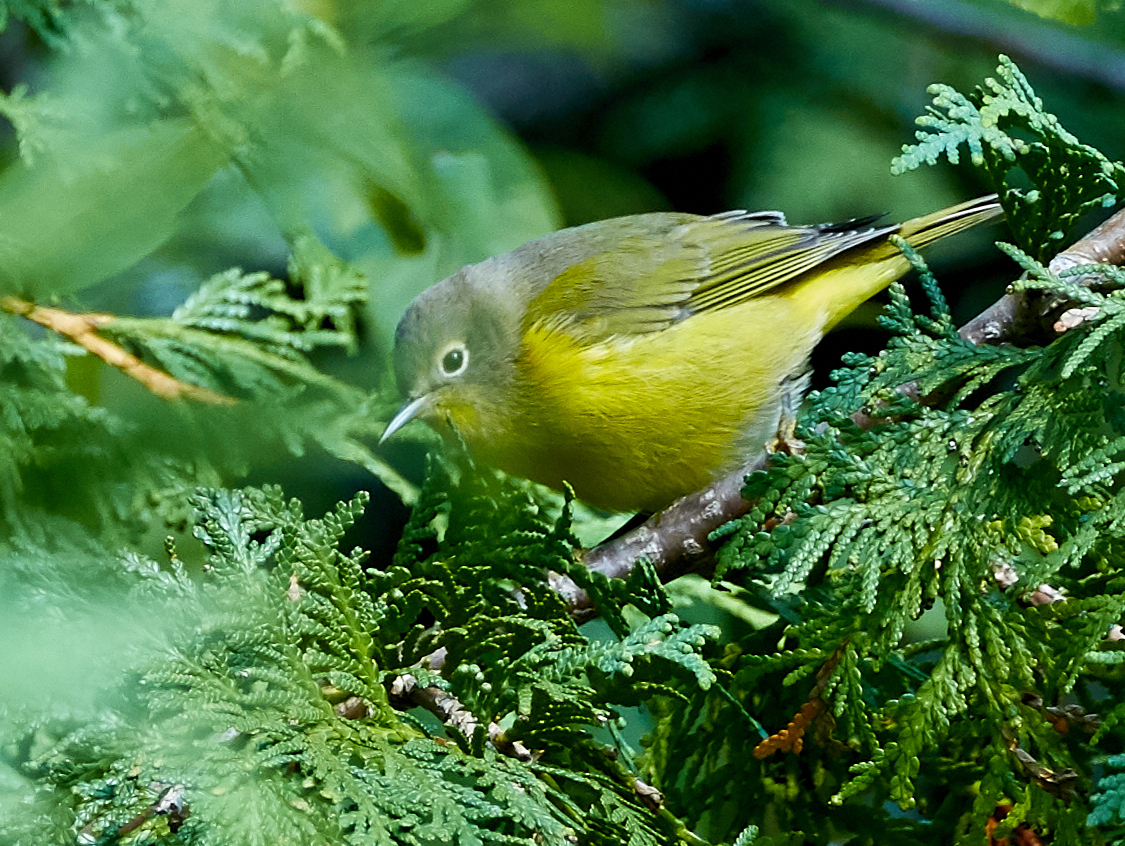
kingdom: Animalia
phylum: Chordata
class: Aves
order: Passeriformes
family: Parulidae
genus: Leiothlypis
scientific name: Leiothlypis ruficapilla
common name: Nashville warbler
